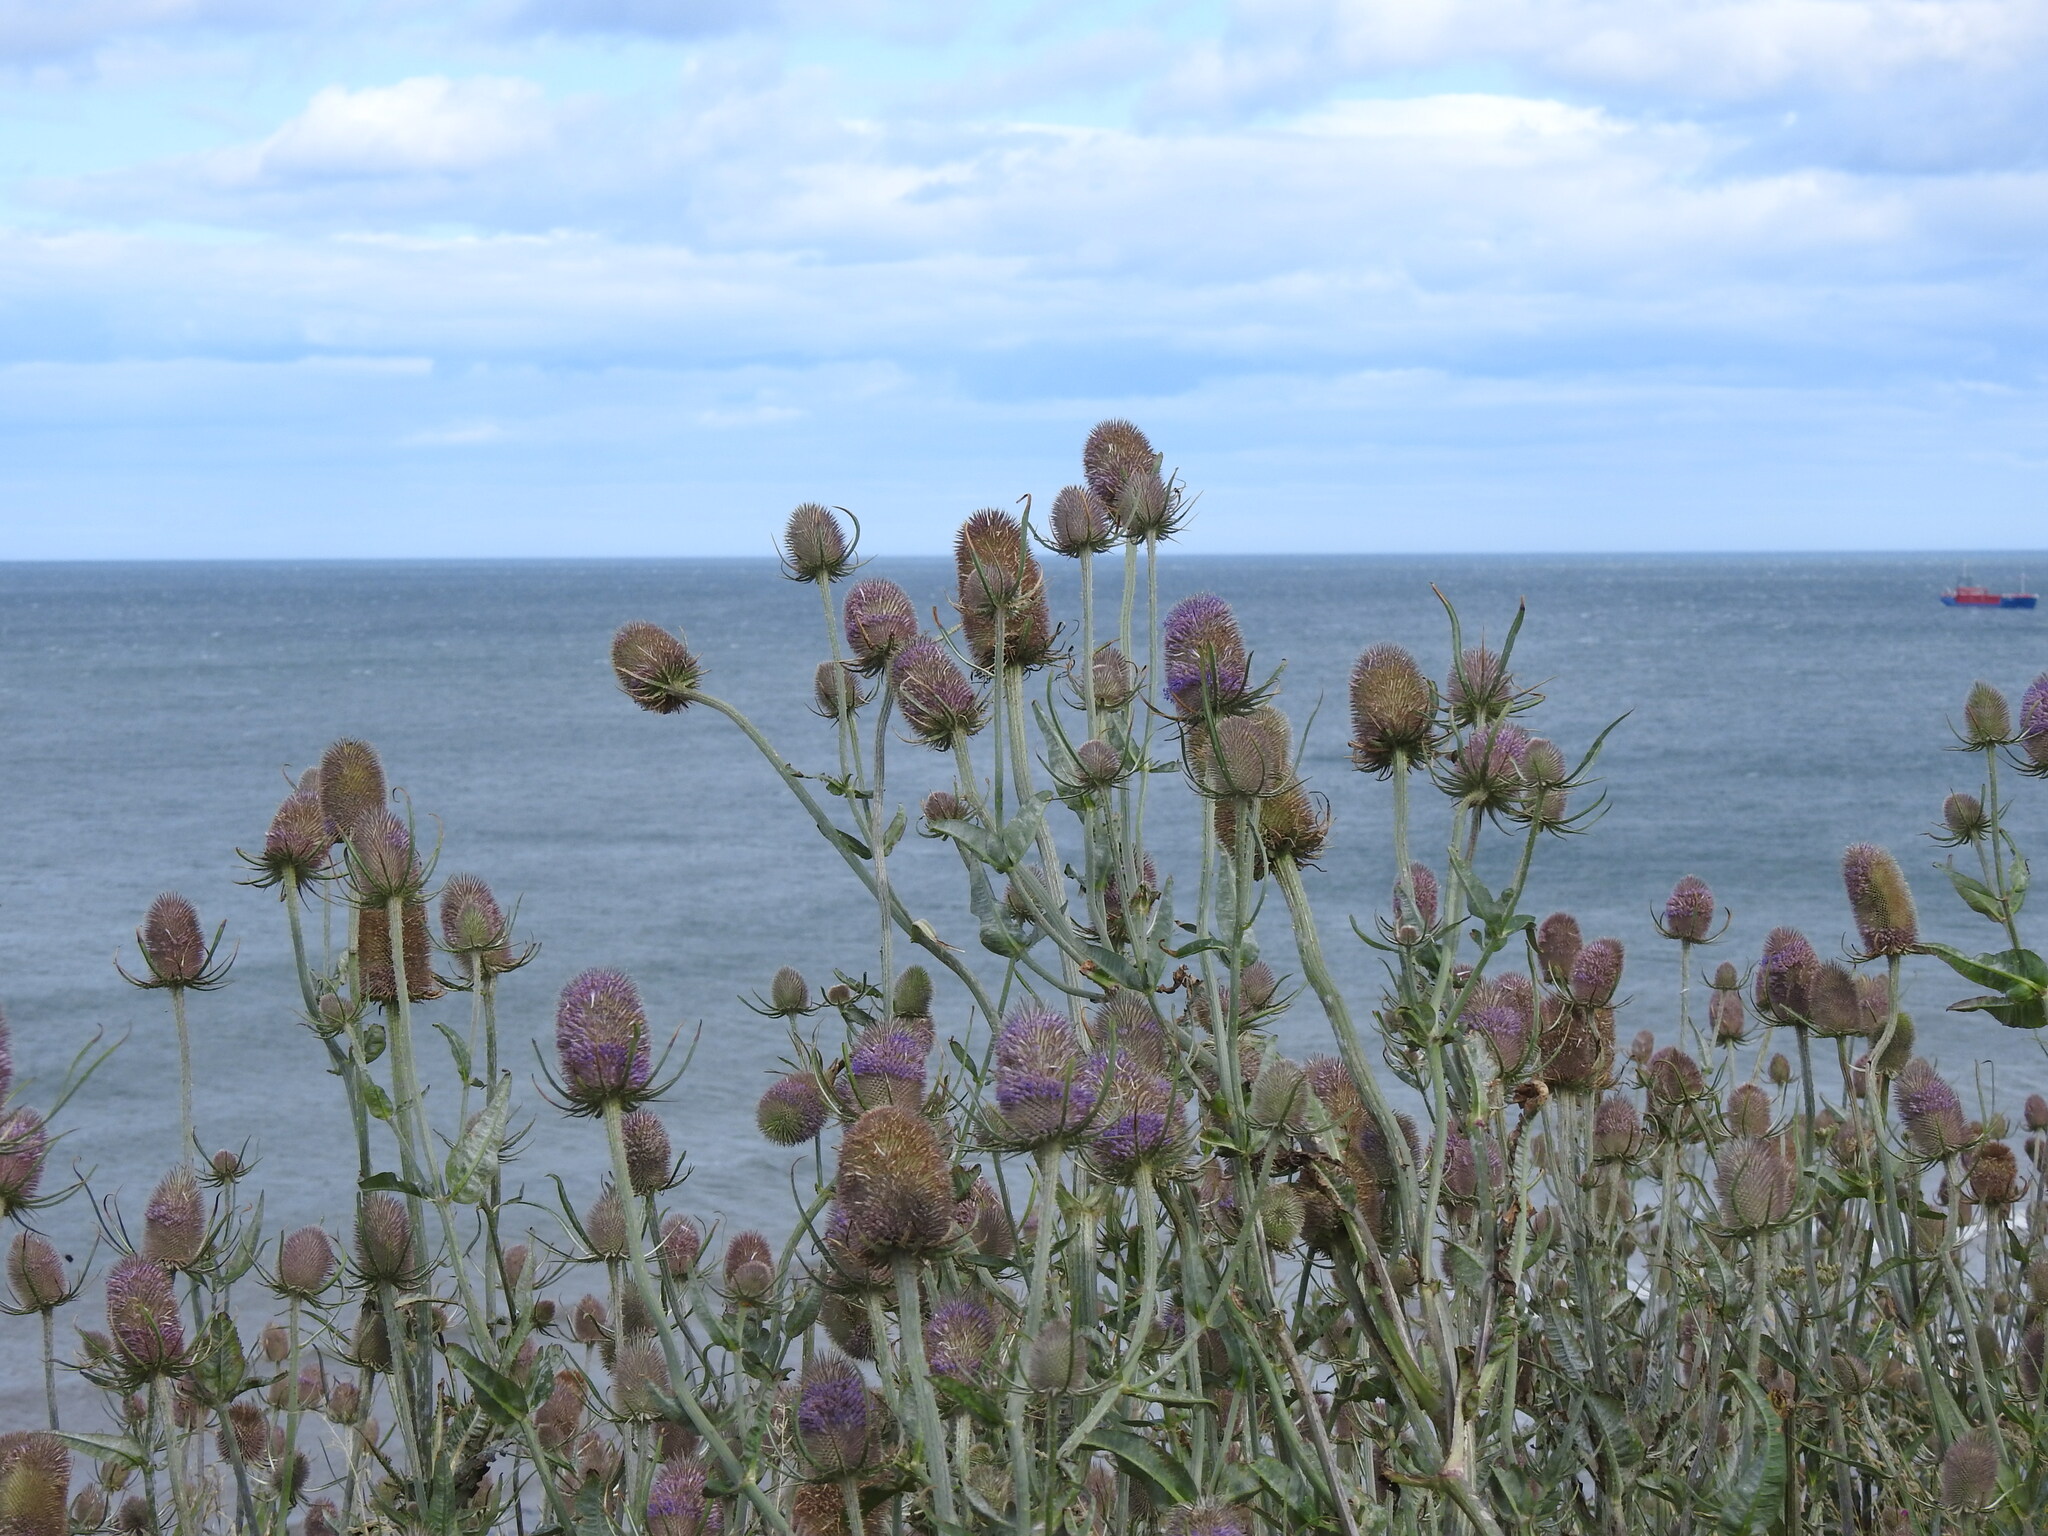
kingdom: Plantae
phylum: Tracheophyta
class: Magnoliopsida
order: Dipsacales
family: Caprifoliaceae
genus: Dipsacus
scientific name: Dipsacus fullonum
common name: Teasel
